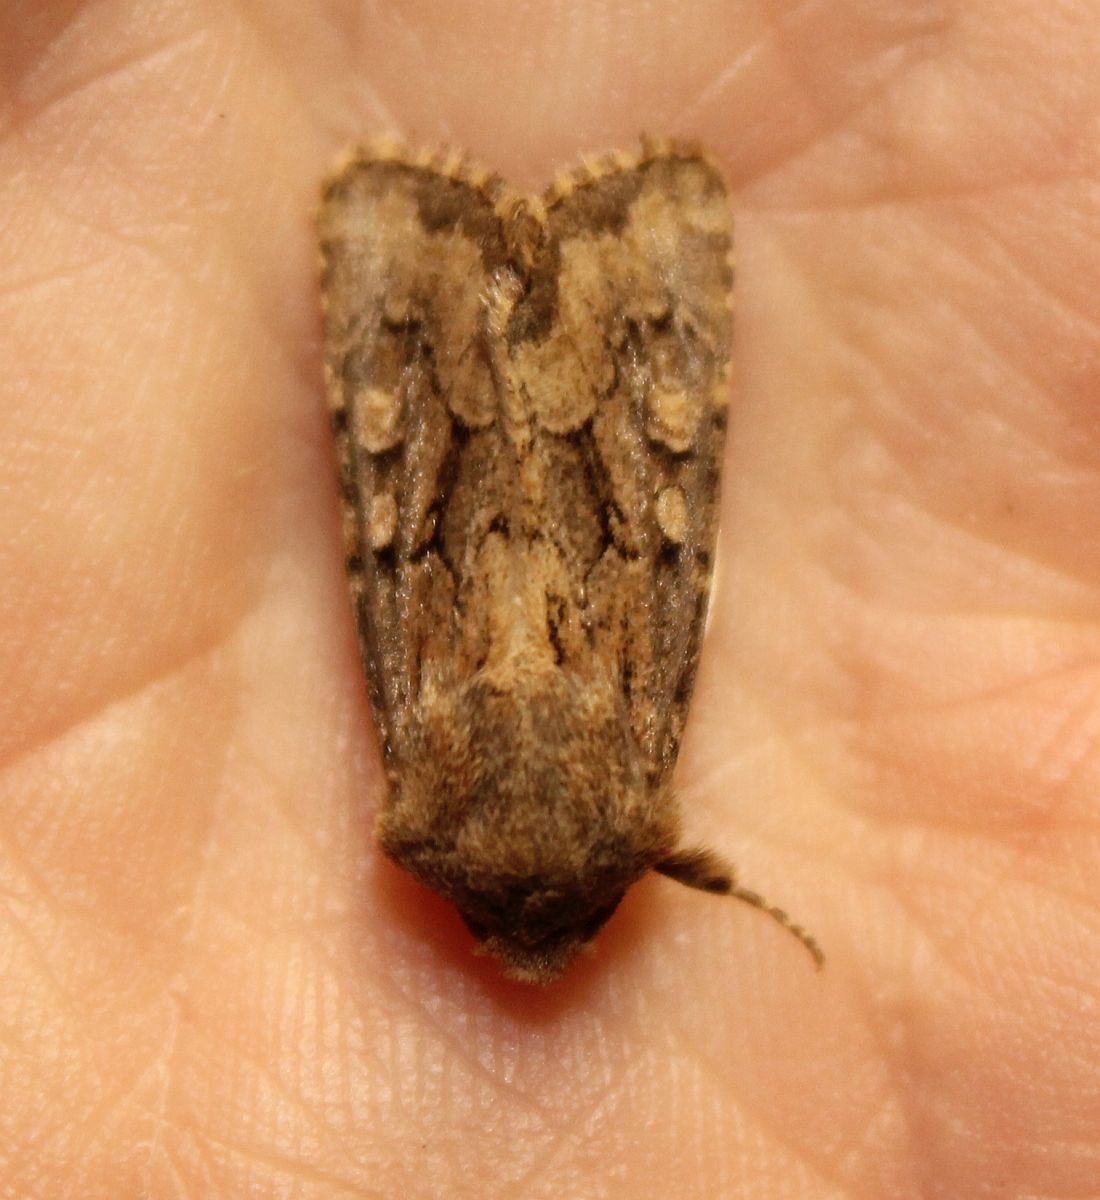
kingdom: Animalia
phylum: Arthropoda
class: Insecta
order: Lepidoptera
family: Noctuidae
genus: Luperina
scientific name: Luperina testacea
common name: Flounced rustic
